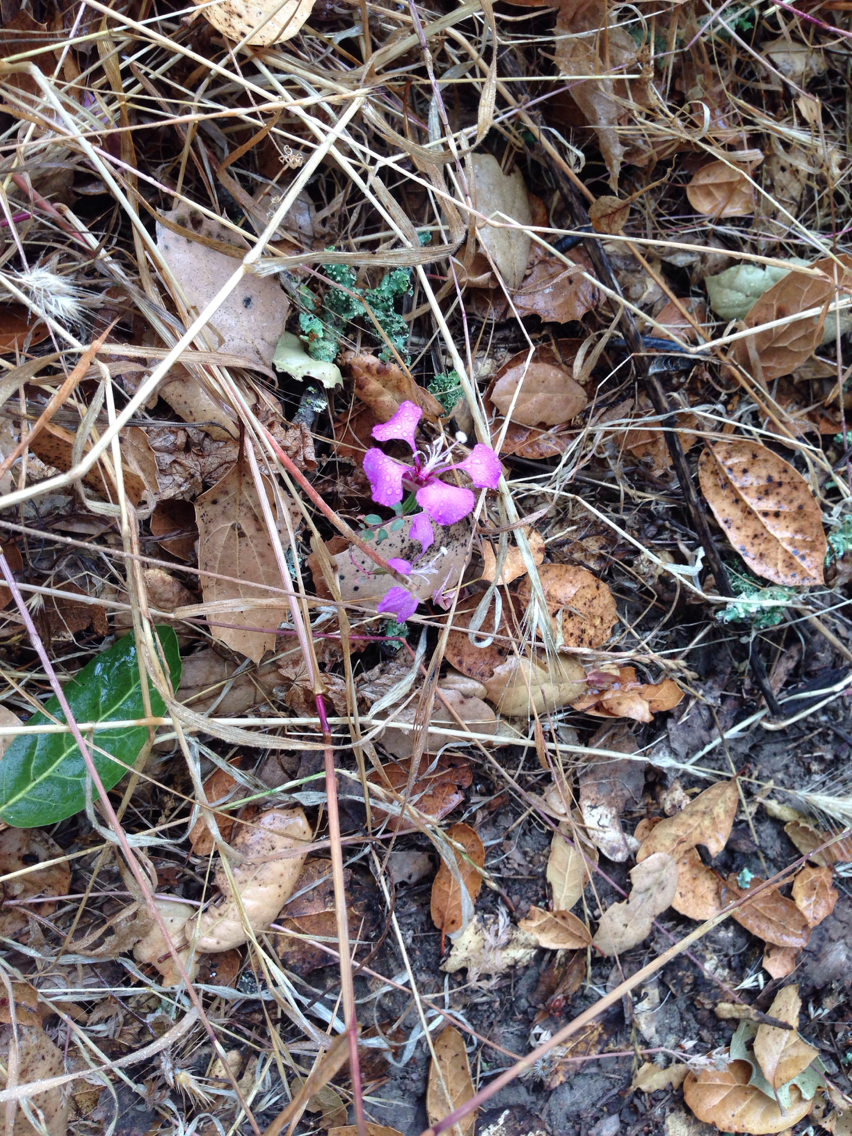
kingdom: Plantae
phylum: Tracheophyta
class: Magnoliopsida
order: Myrtales
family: Onagraceae
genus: Clarkia
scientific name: Clarkia unguiculata
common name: Clarkia
